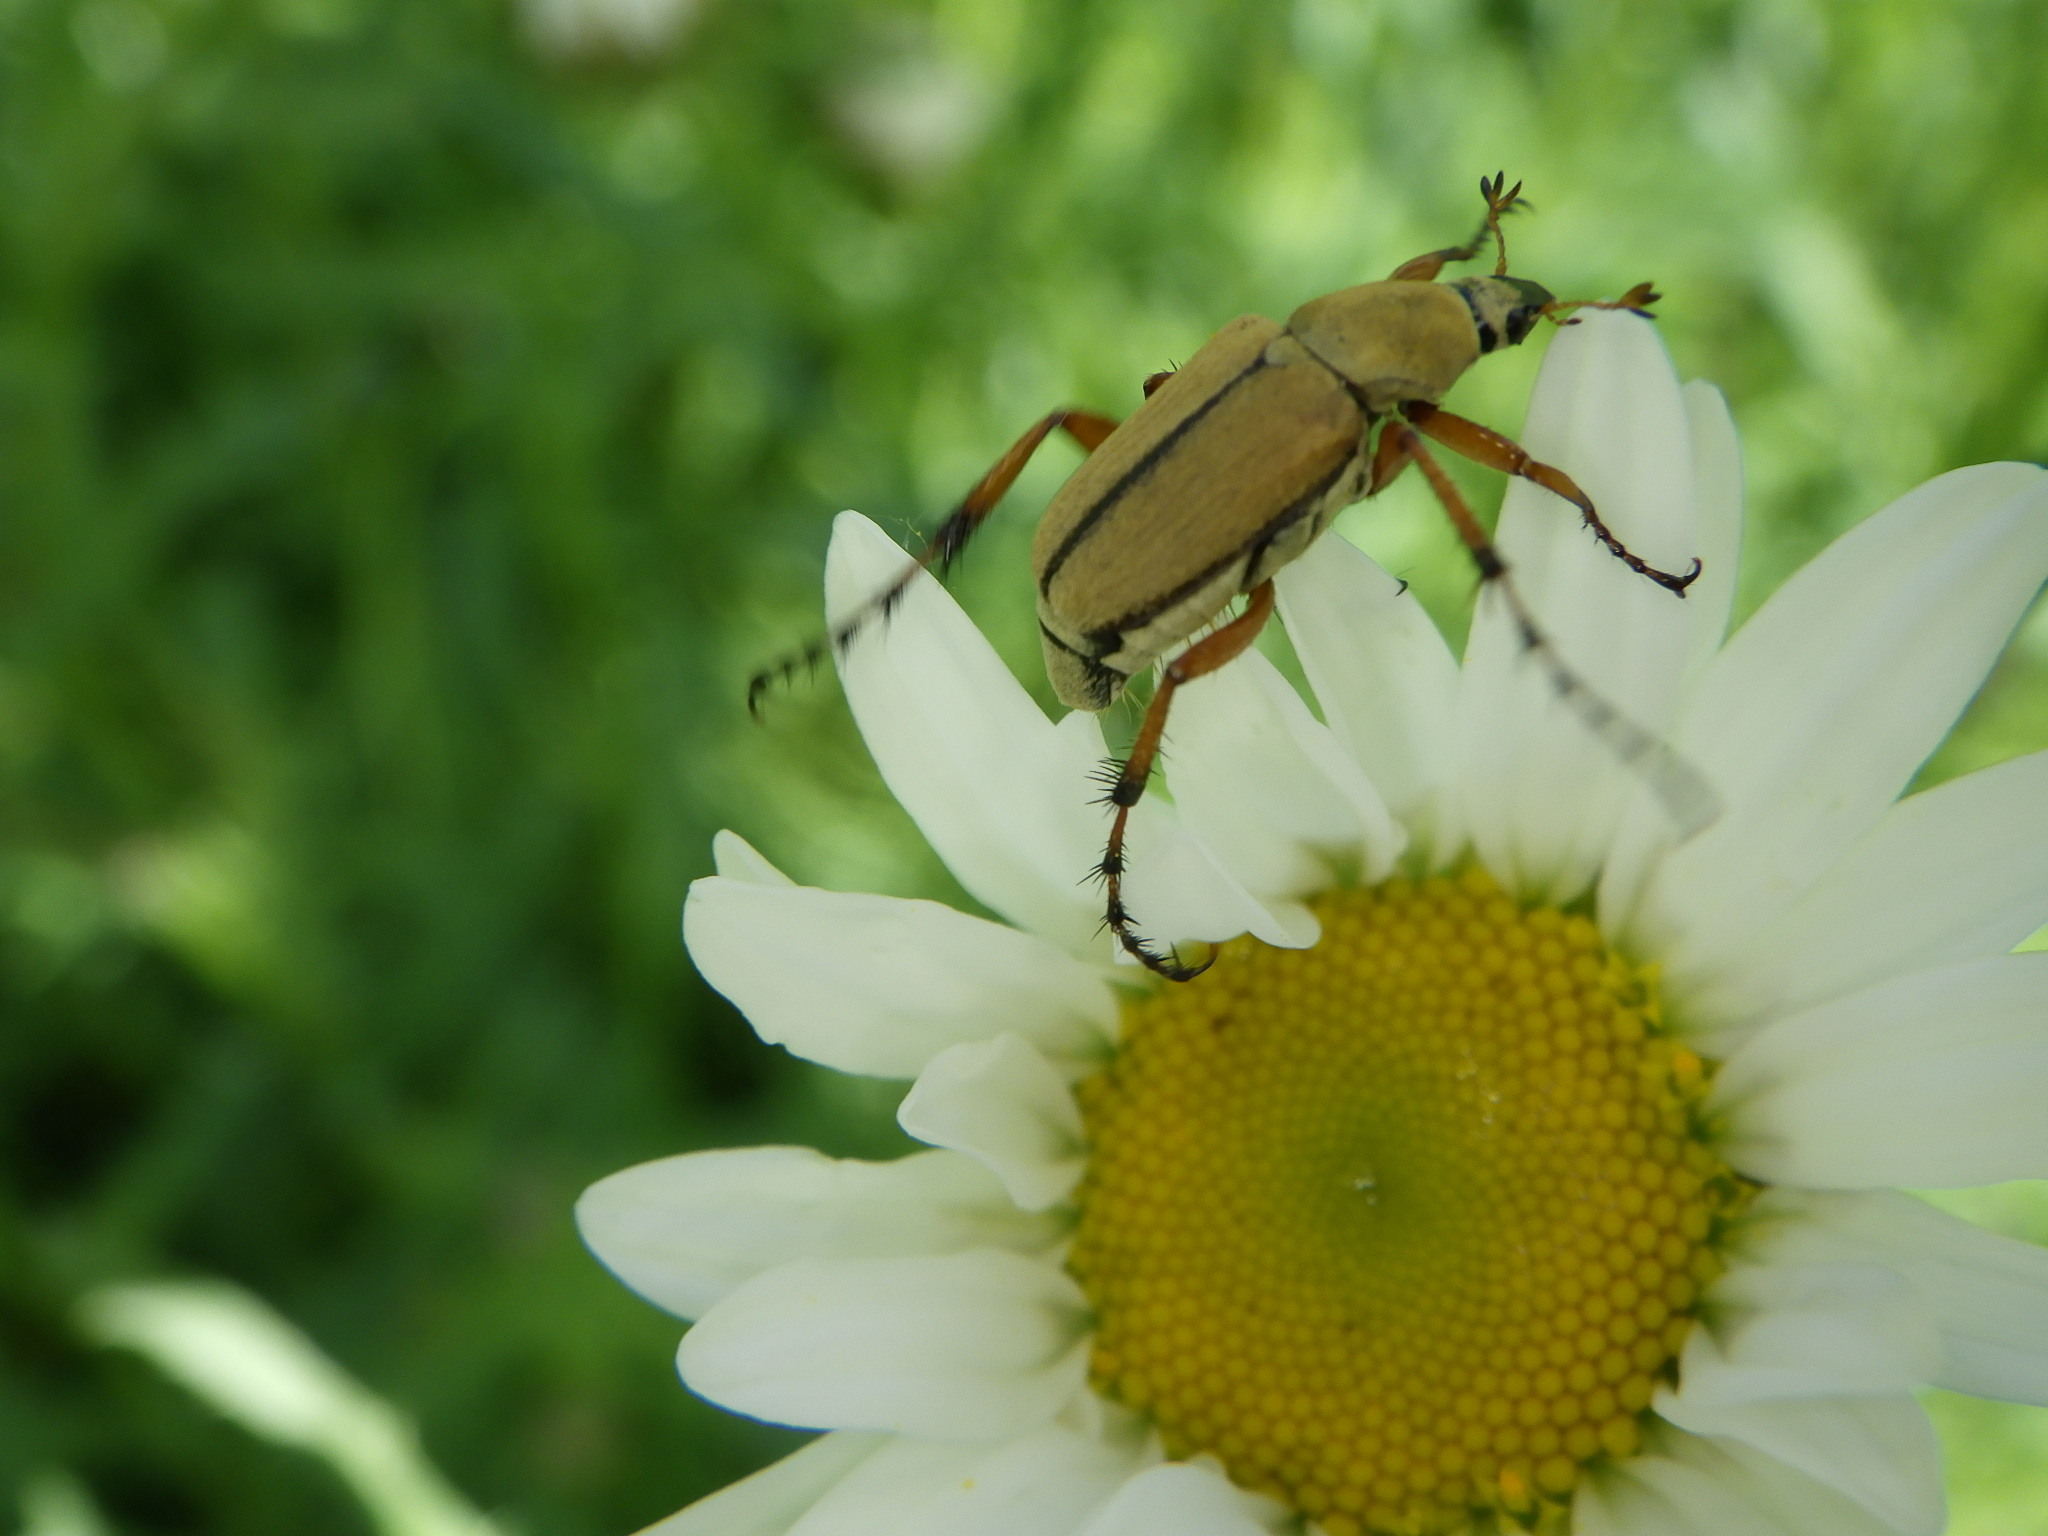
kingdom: Animalia
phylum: Arthropoda
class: Insecta
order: Coleoptera
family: Scarabaeidae
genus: Macrodactylus
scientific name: Macrodactylus subspinosus
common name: American rose chafer
